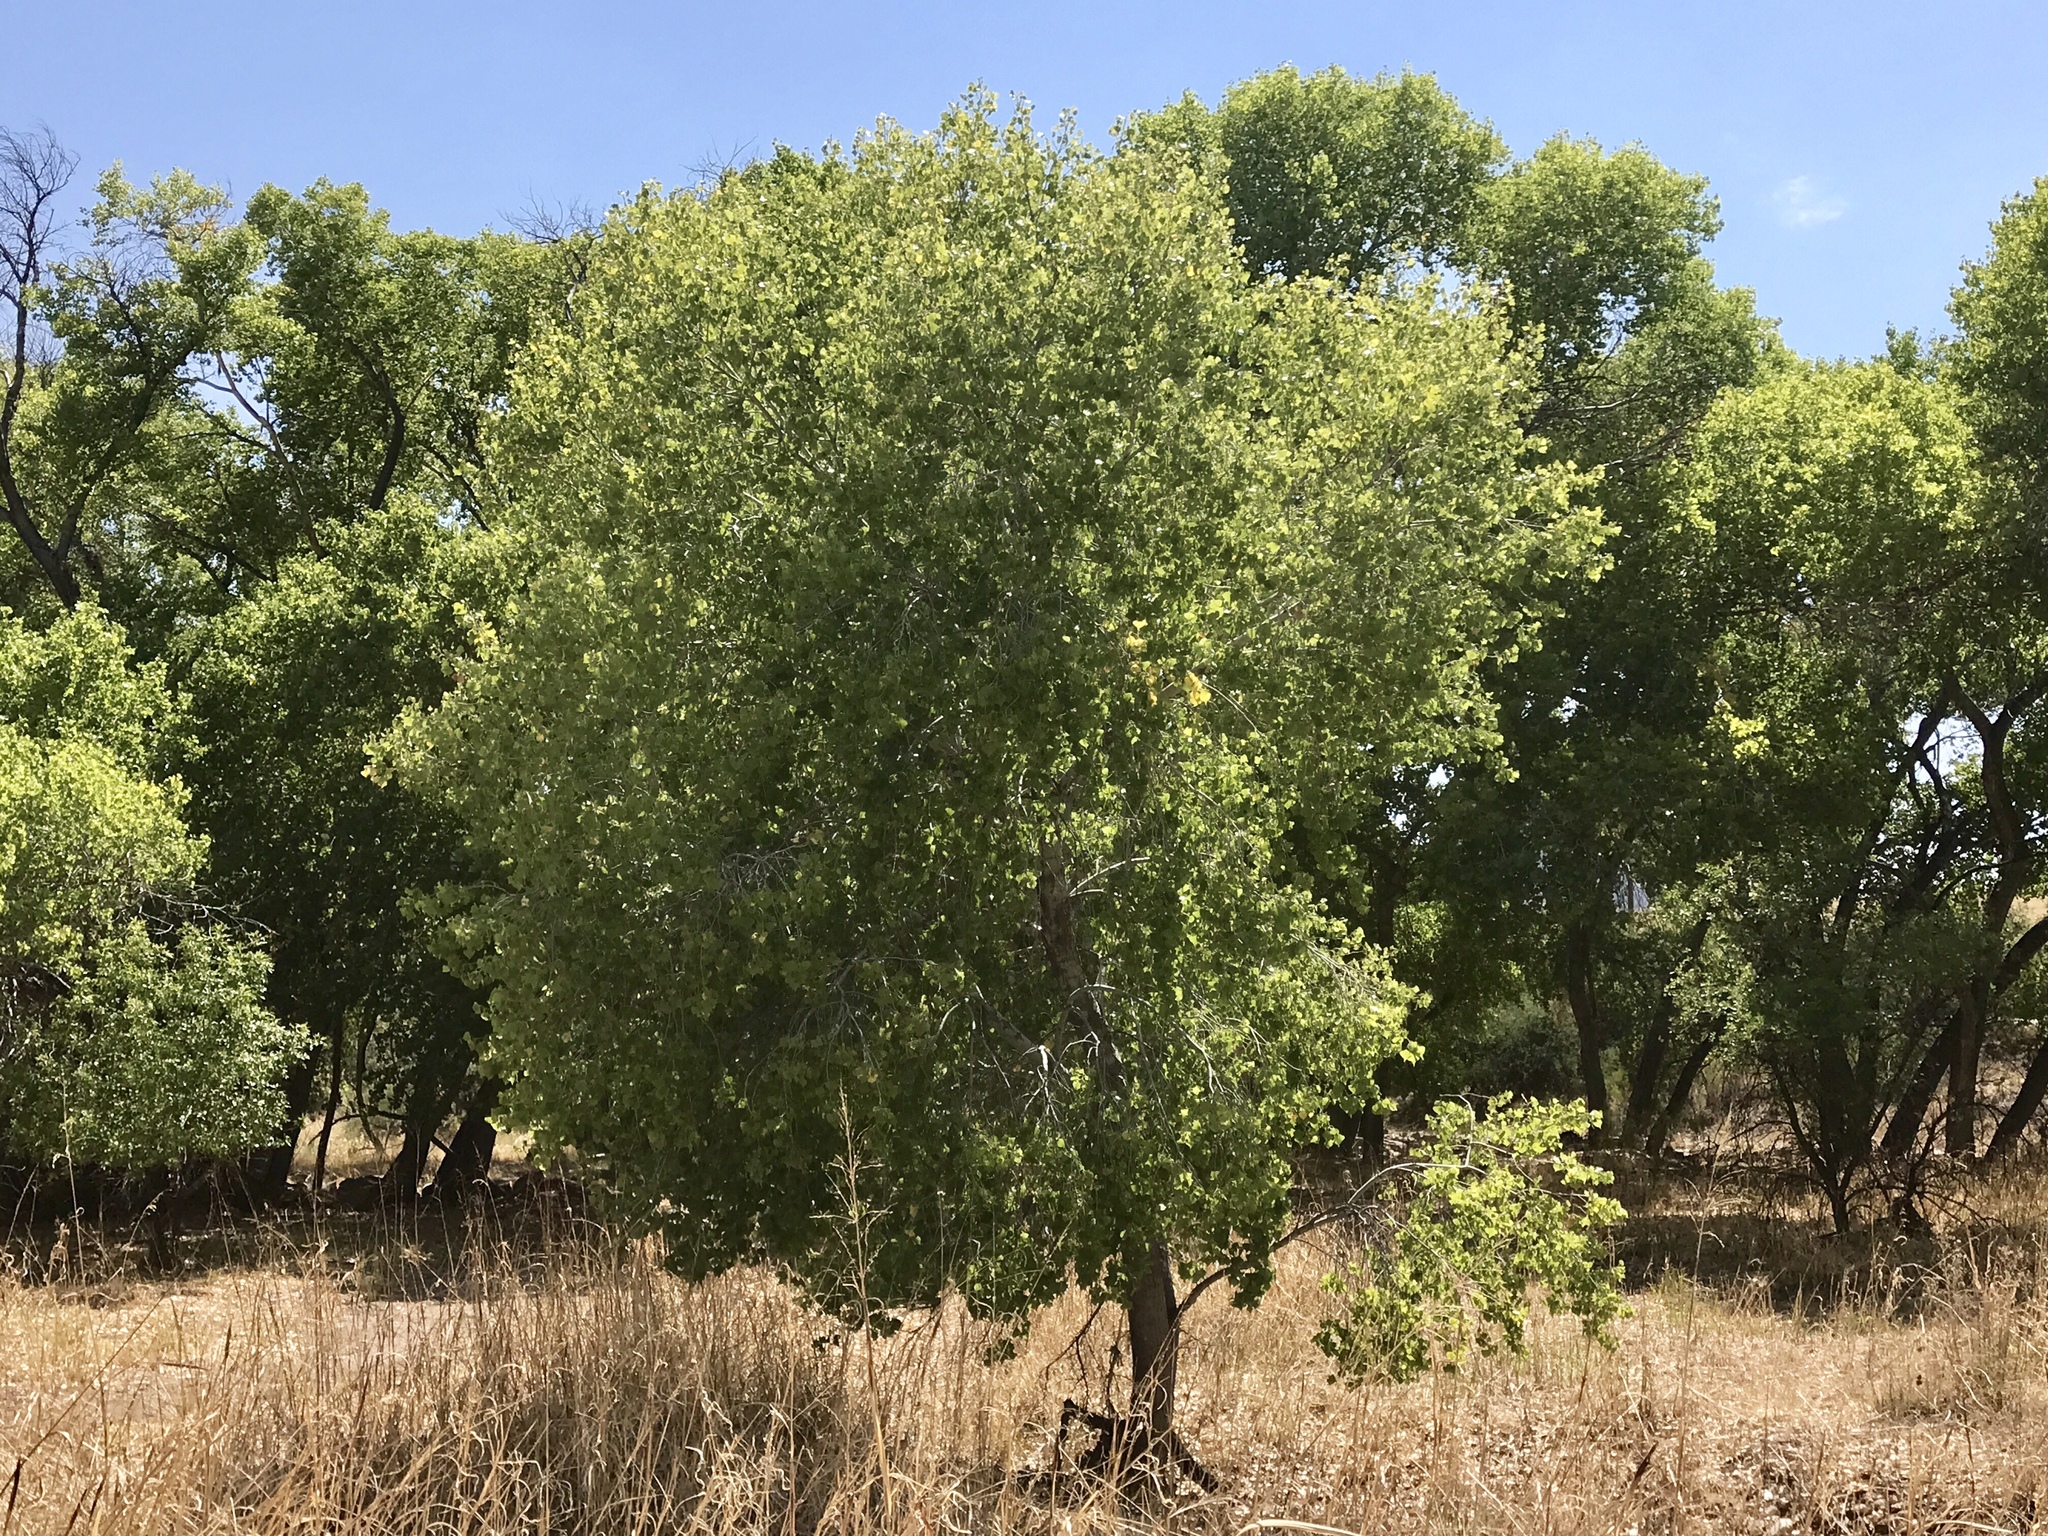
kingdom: Plantae
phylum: Tracheophyta
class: Magnoliopsida
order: Malpighiales
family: Salicaceae
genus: Populus
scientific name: Populus fremontii
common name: Fremont's cottonwood
